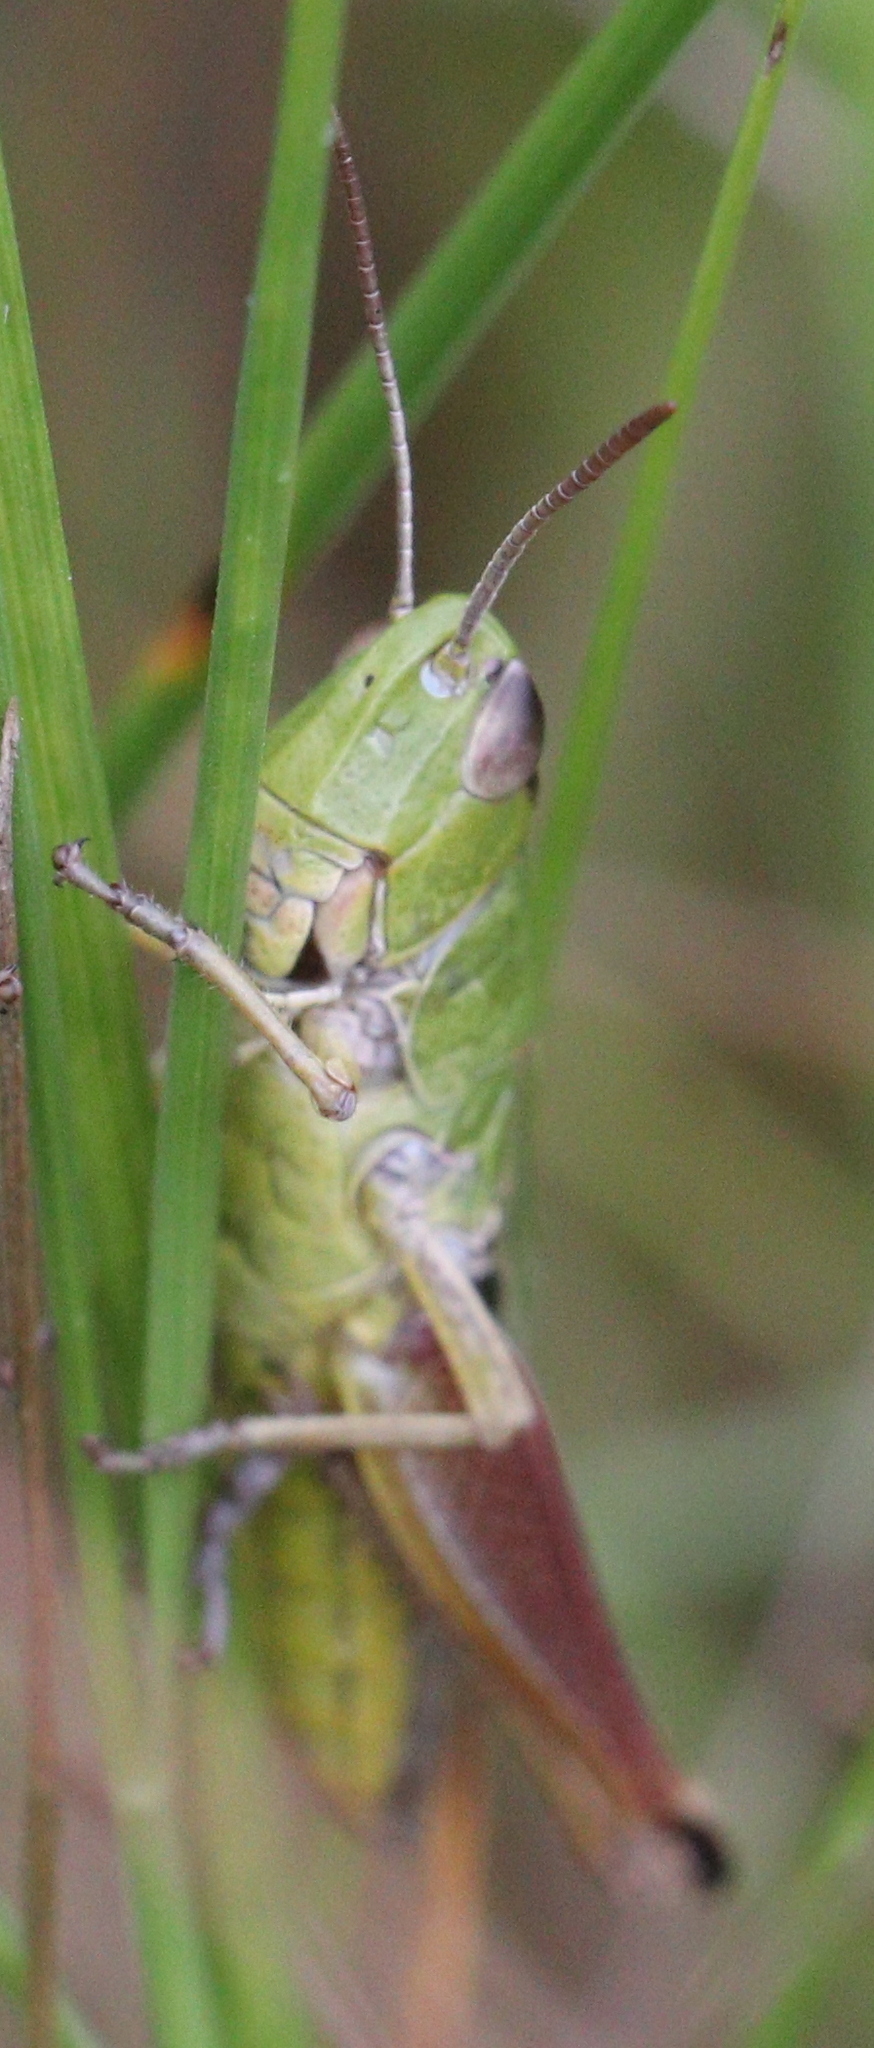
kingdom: Animalia
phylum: Arthropoda
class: Insecta
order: Orthoptera
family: Acrididae
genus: Pseudochorthippus
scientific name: Pseudochorthippus parallelus
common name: Meadow grasshopper
